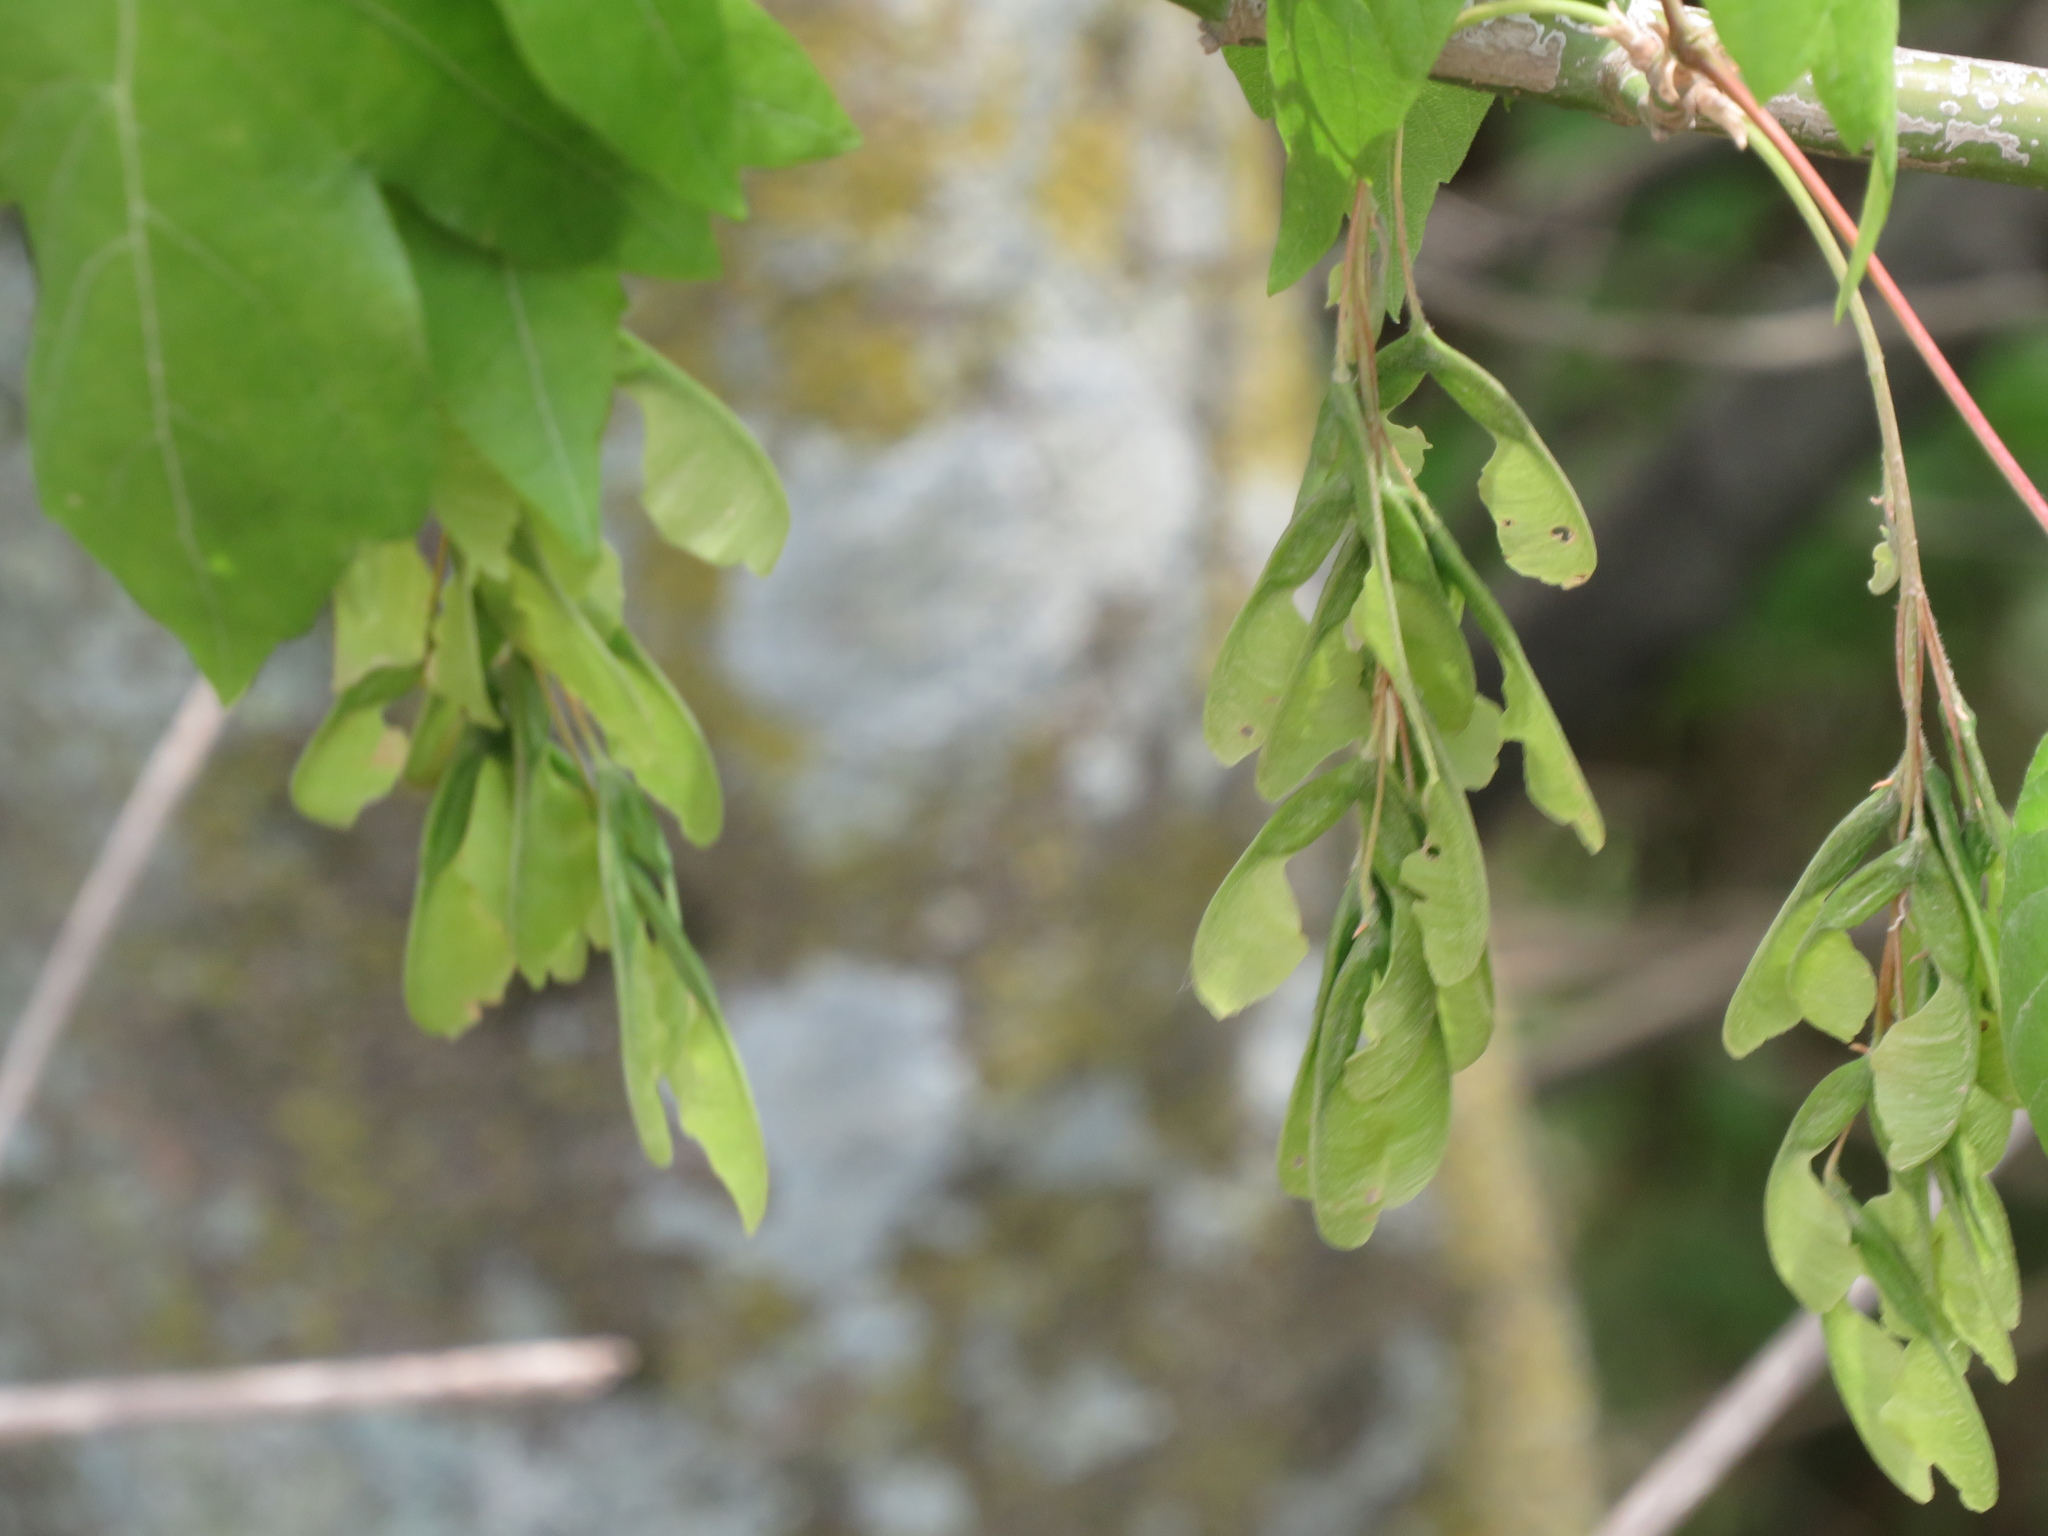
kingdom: Plantae
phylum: Tracheophyta
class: Magnoliopsida
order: Sapindales
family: Sapindaceae
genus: Acer
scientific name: Acer negundo
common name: Ashleaf maple
